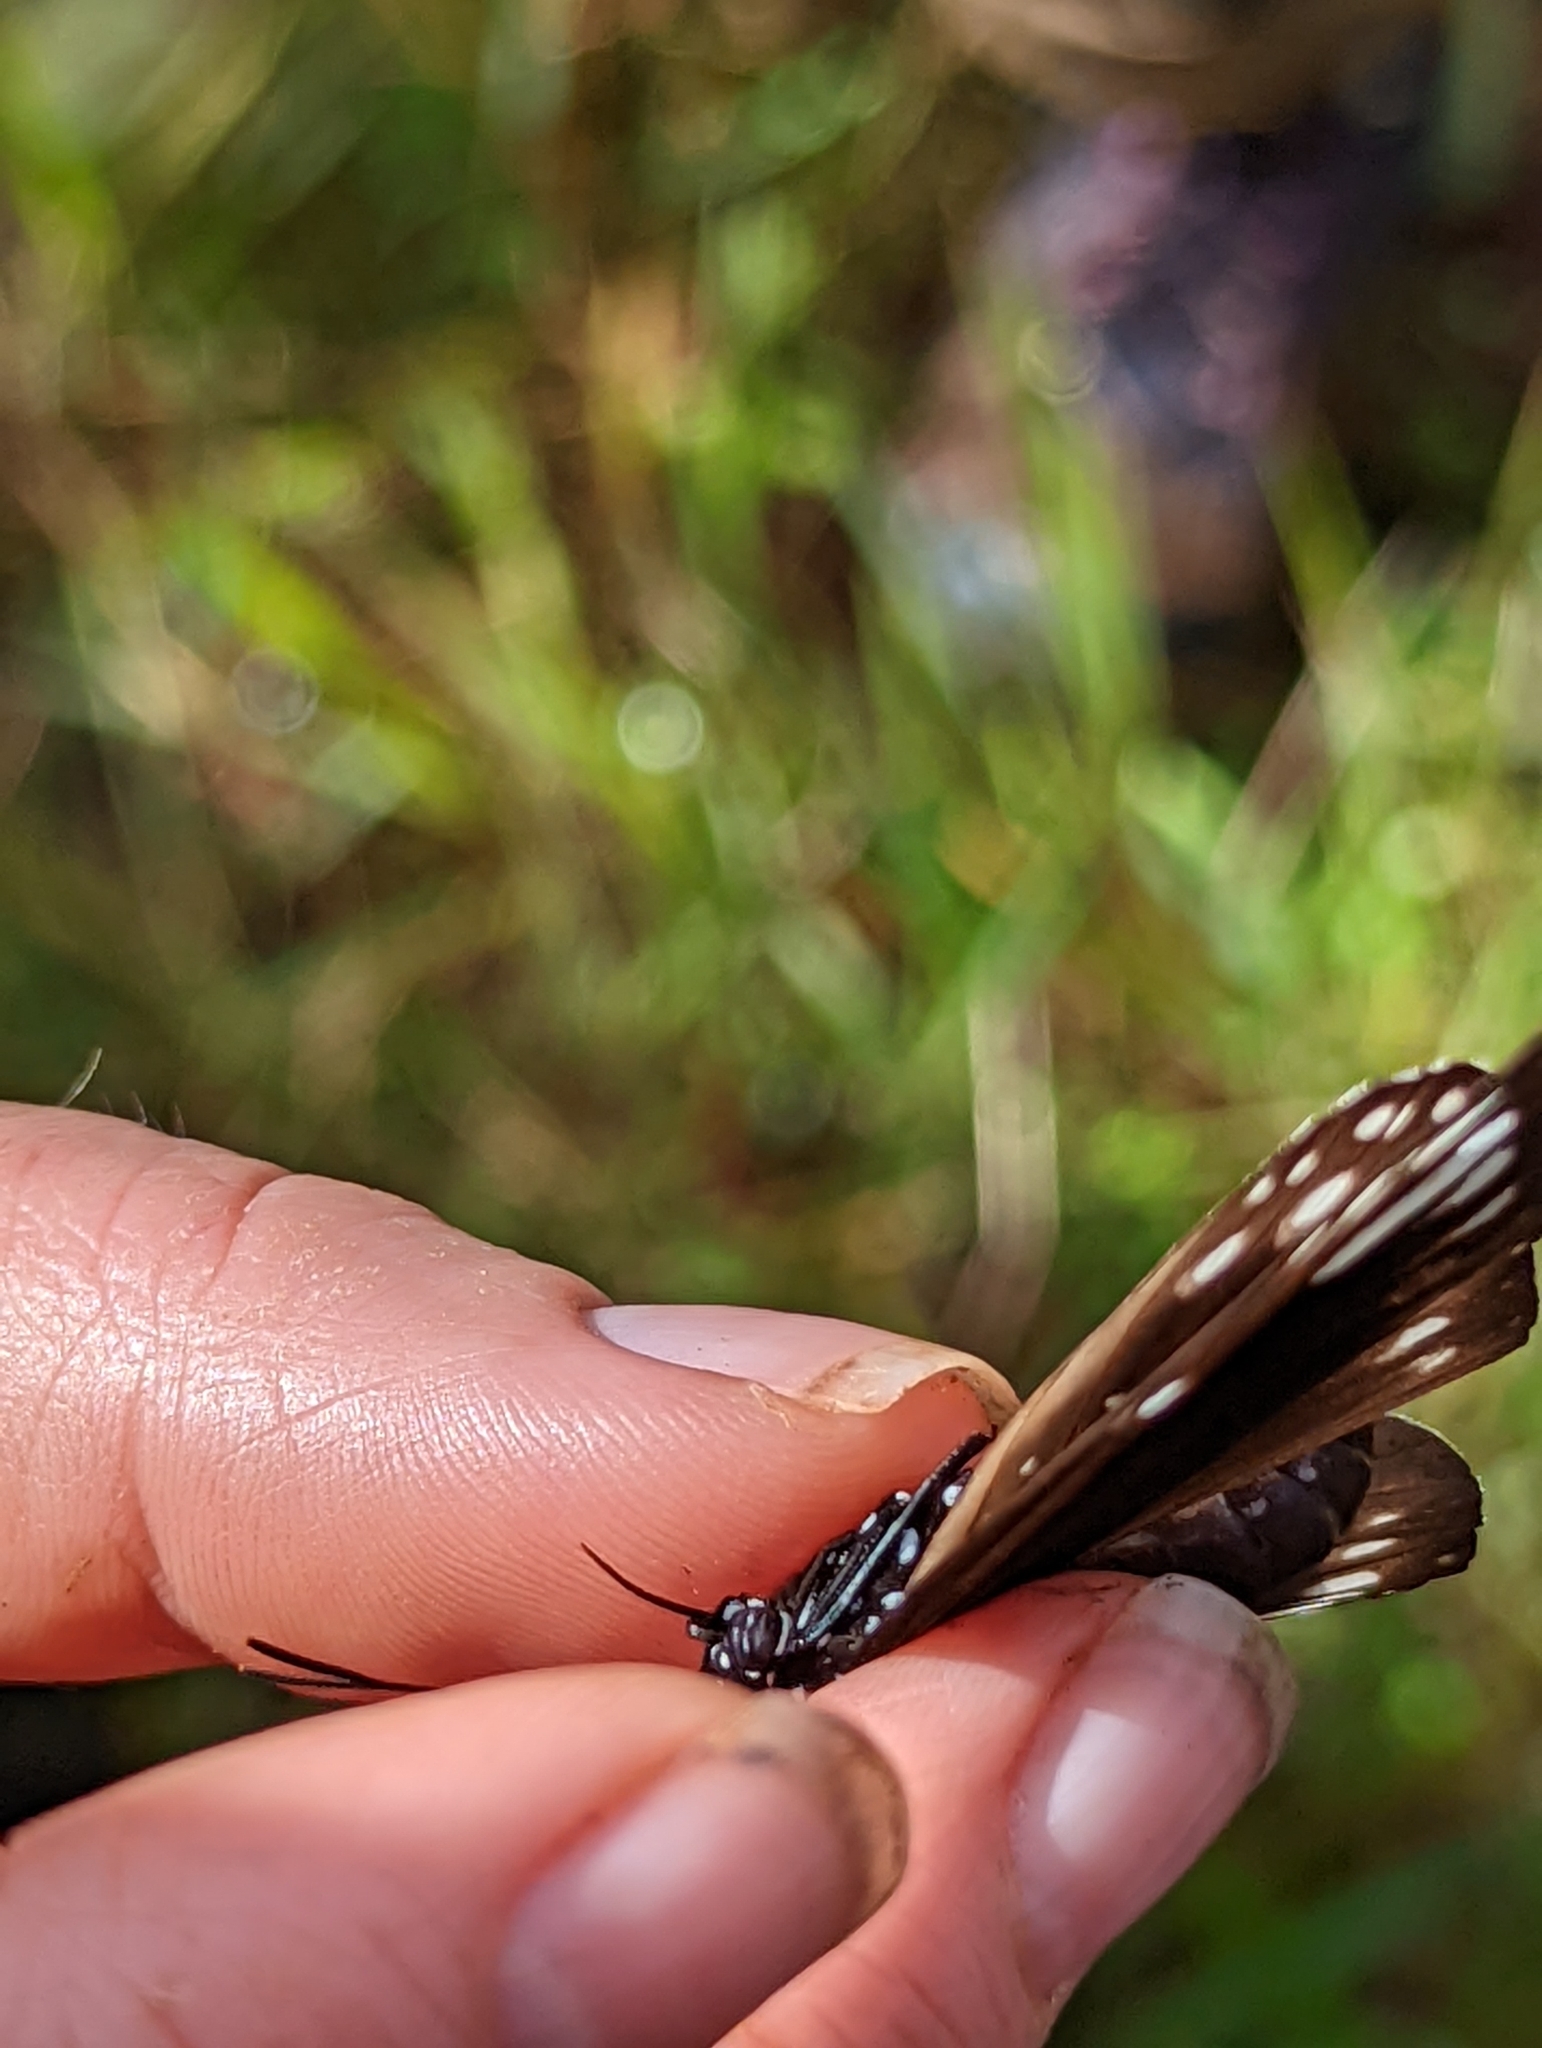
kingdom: Animalia
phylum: Arthropoda
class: Insecta
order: Lepidoptera
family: Nymphalidae
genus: Euploea
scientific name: Euploea lewinii
